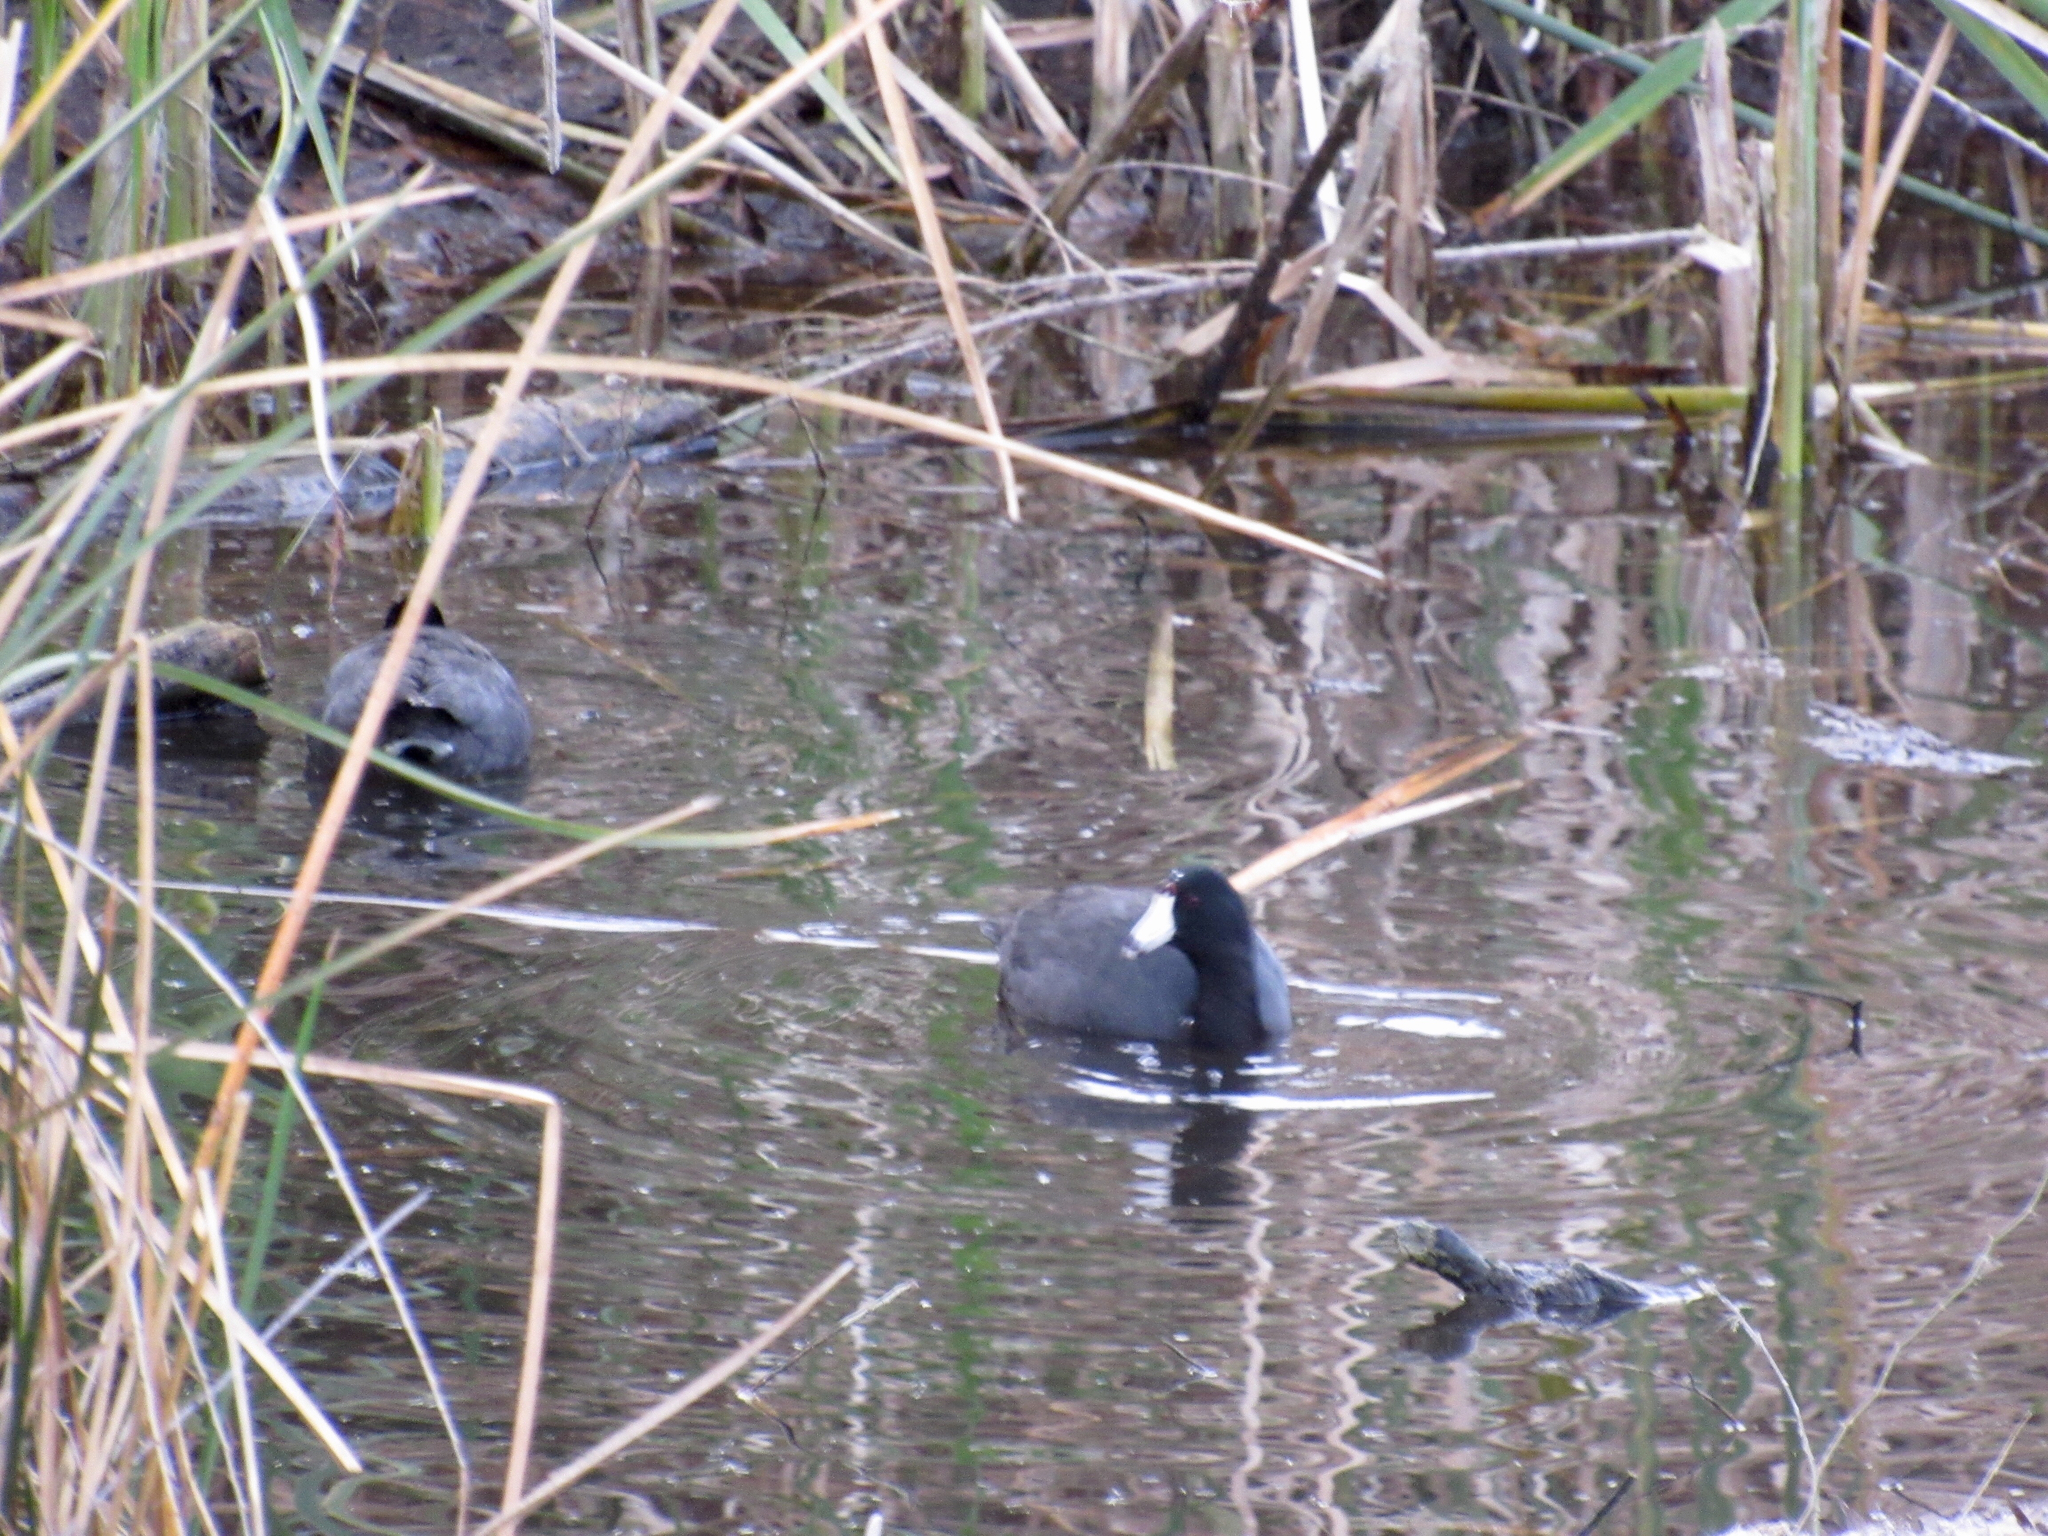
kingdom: Animalia
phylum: Chordata
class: Aves
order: Gruiformes
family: Rallidae
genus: Fulica
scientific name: Fulica americana
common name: American coot
